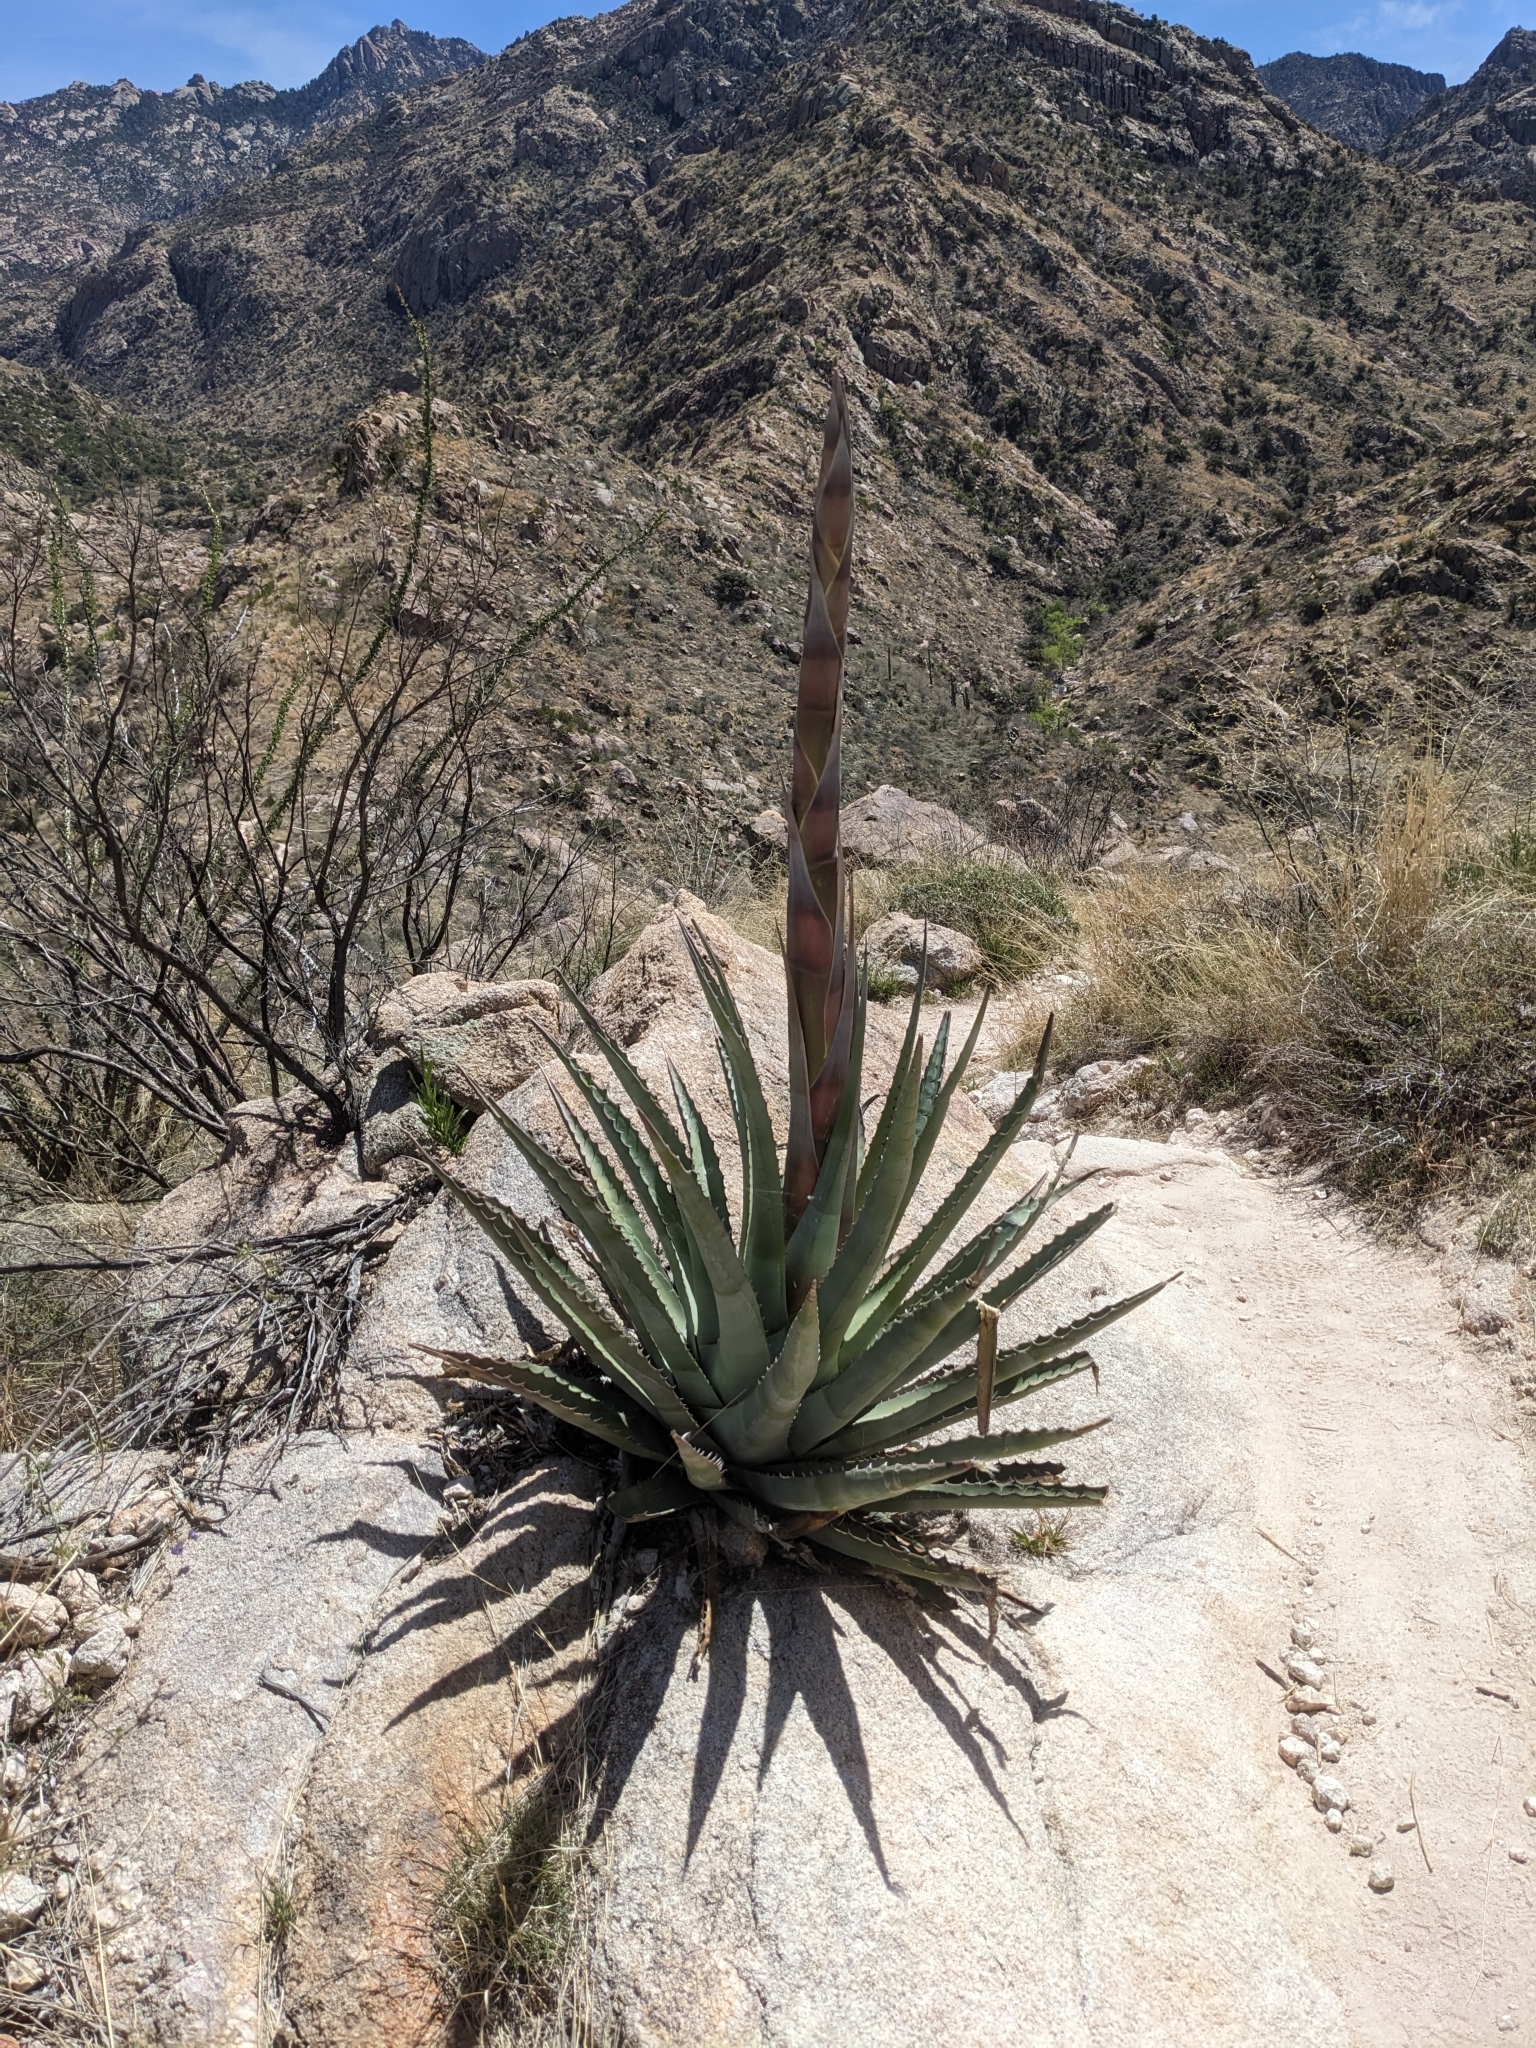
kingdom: Plantae
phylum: Tracheophyta
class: Liliopsida
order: Asparagales
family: Asparagaceae
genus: Agave
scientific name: Agave palmeri
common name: Palmer agave
